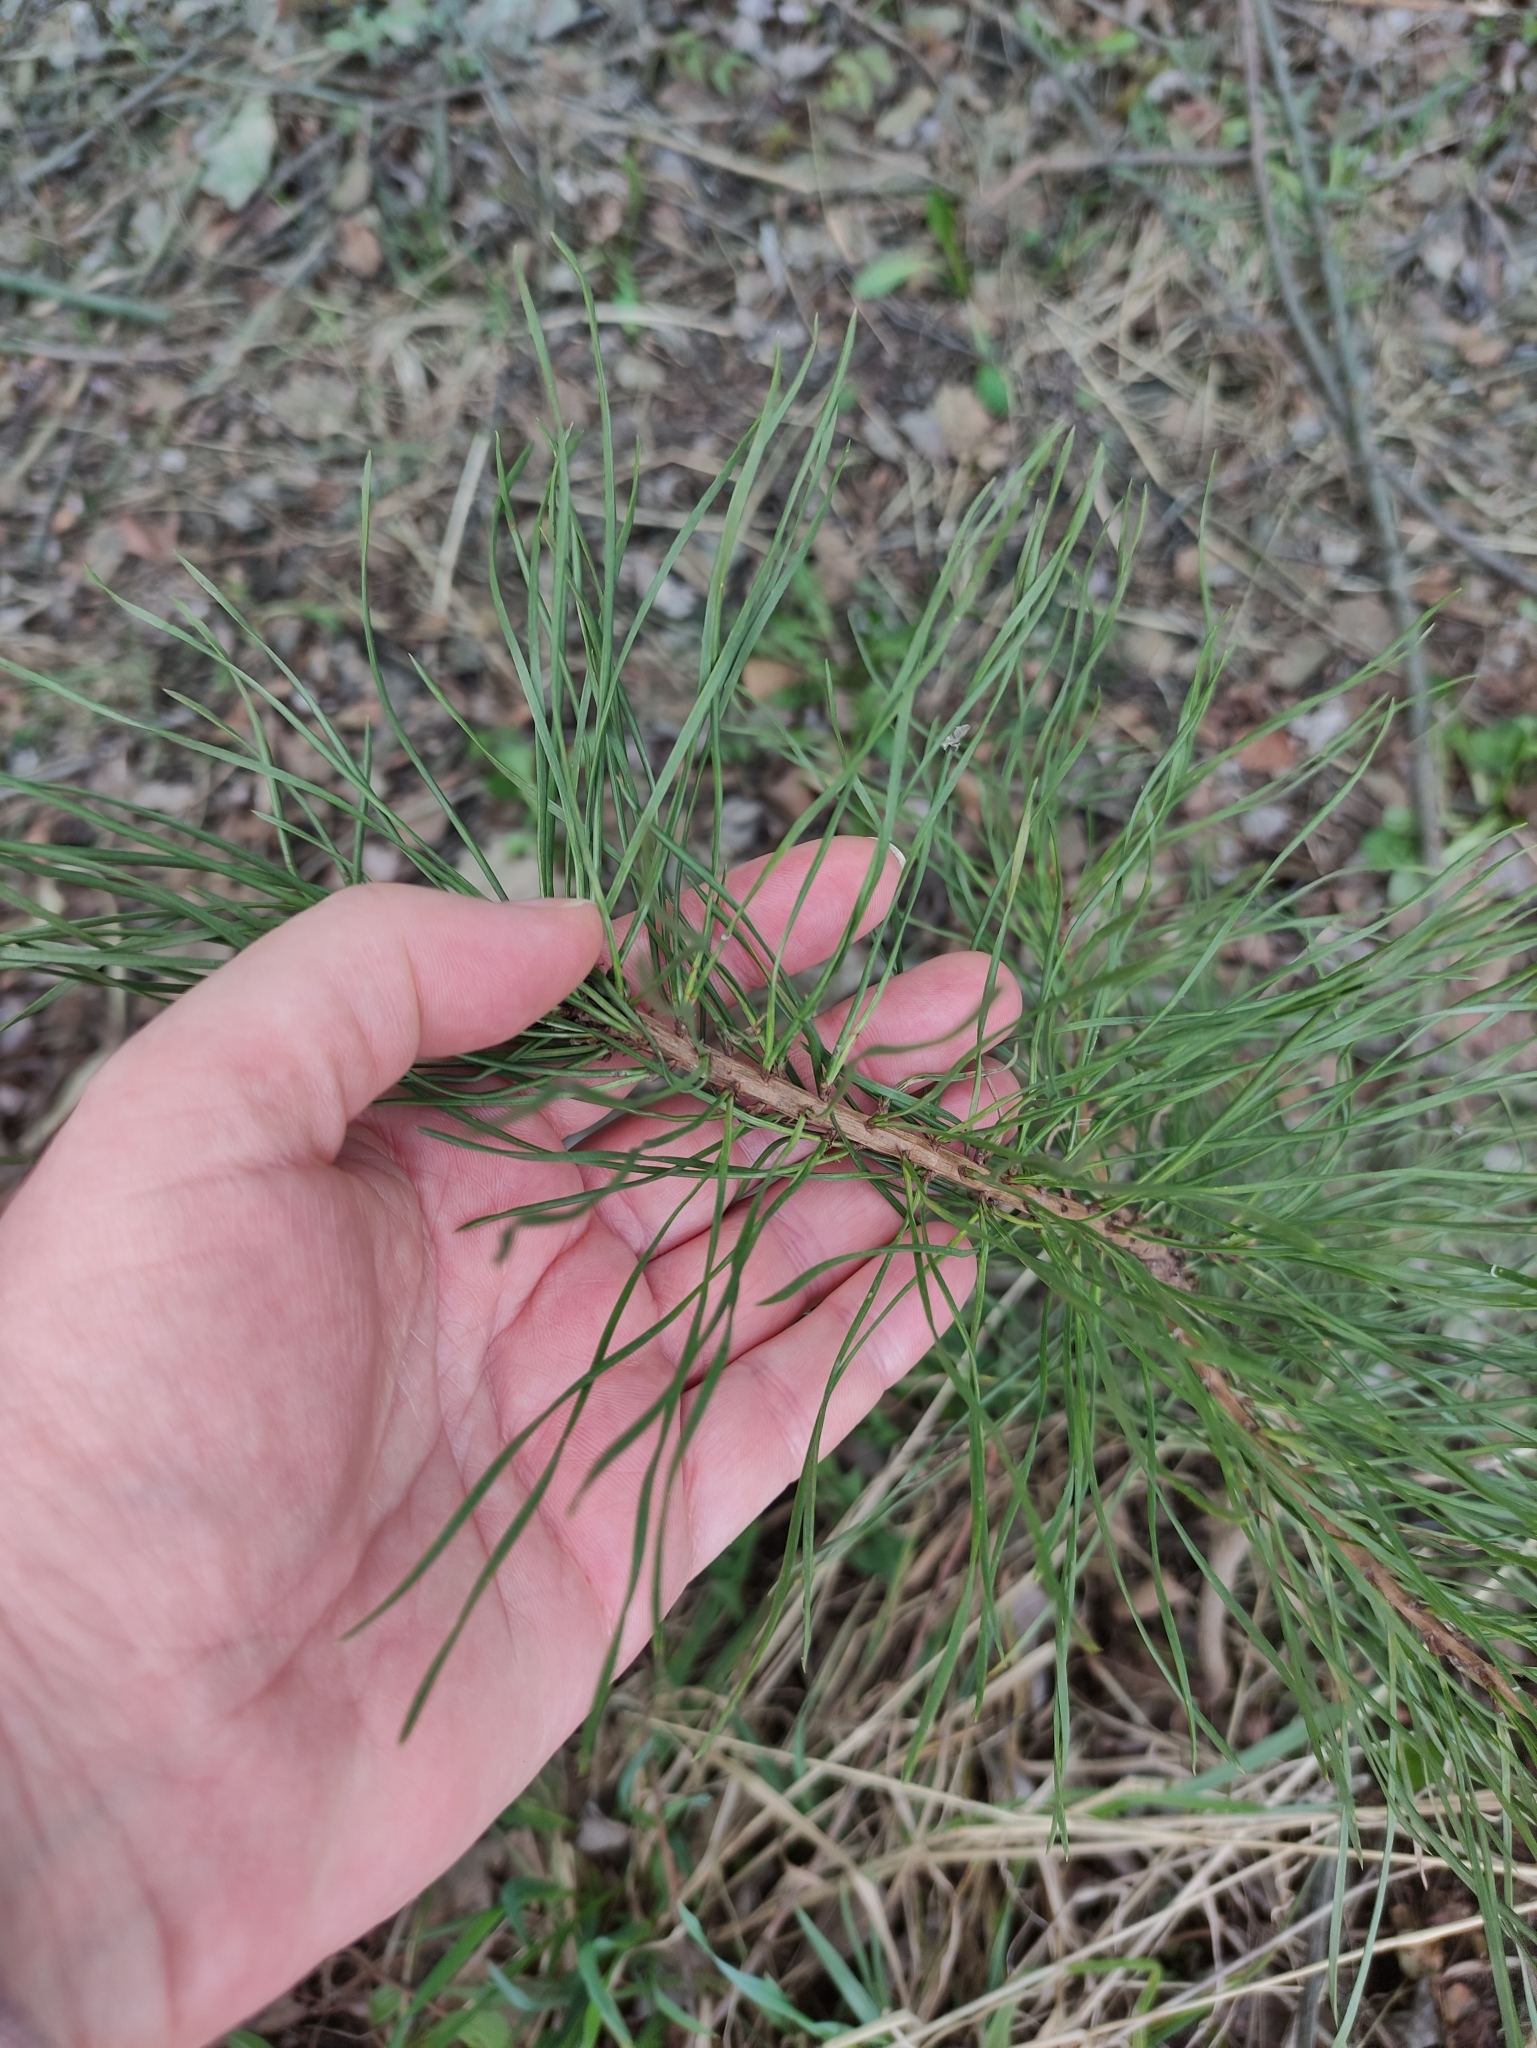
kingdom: Plantae
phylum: Tracheophyta
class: Pinopsida
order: Pinales
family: Pinaceae
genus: Pinus
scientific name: Pinus sylvestris
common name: Scots pine
